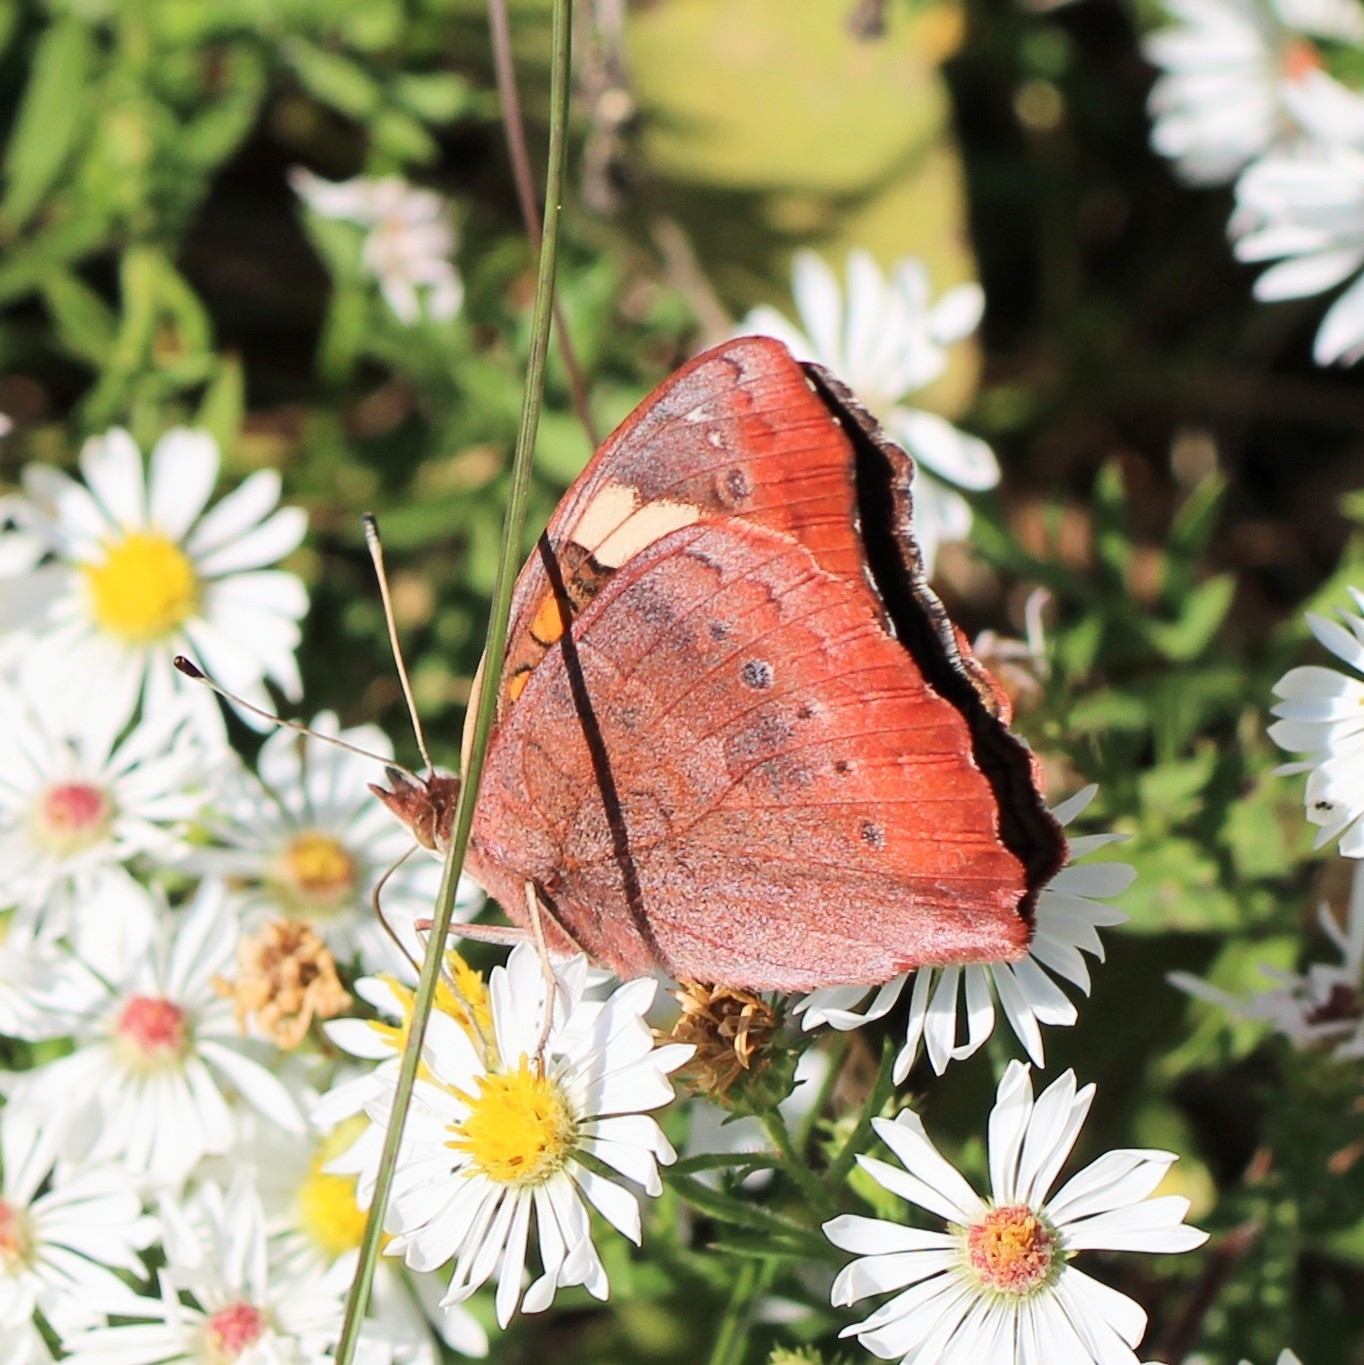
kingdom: Animalia
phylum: Arthropoda
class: Insecta
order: Lepidoptera
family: Nymphalidae
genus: Junonia
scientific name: Junonia coenia
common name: Common buckeye
